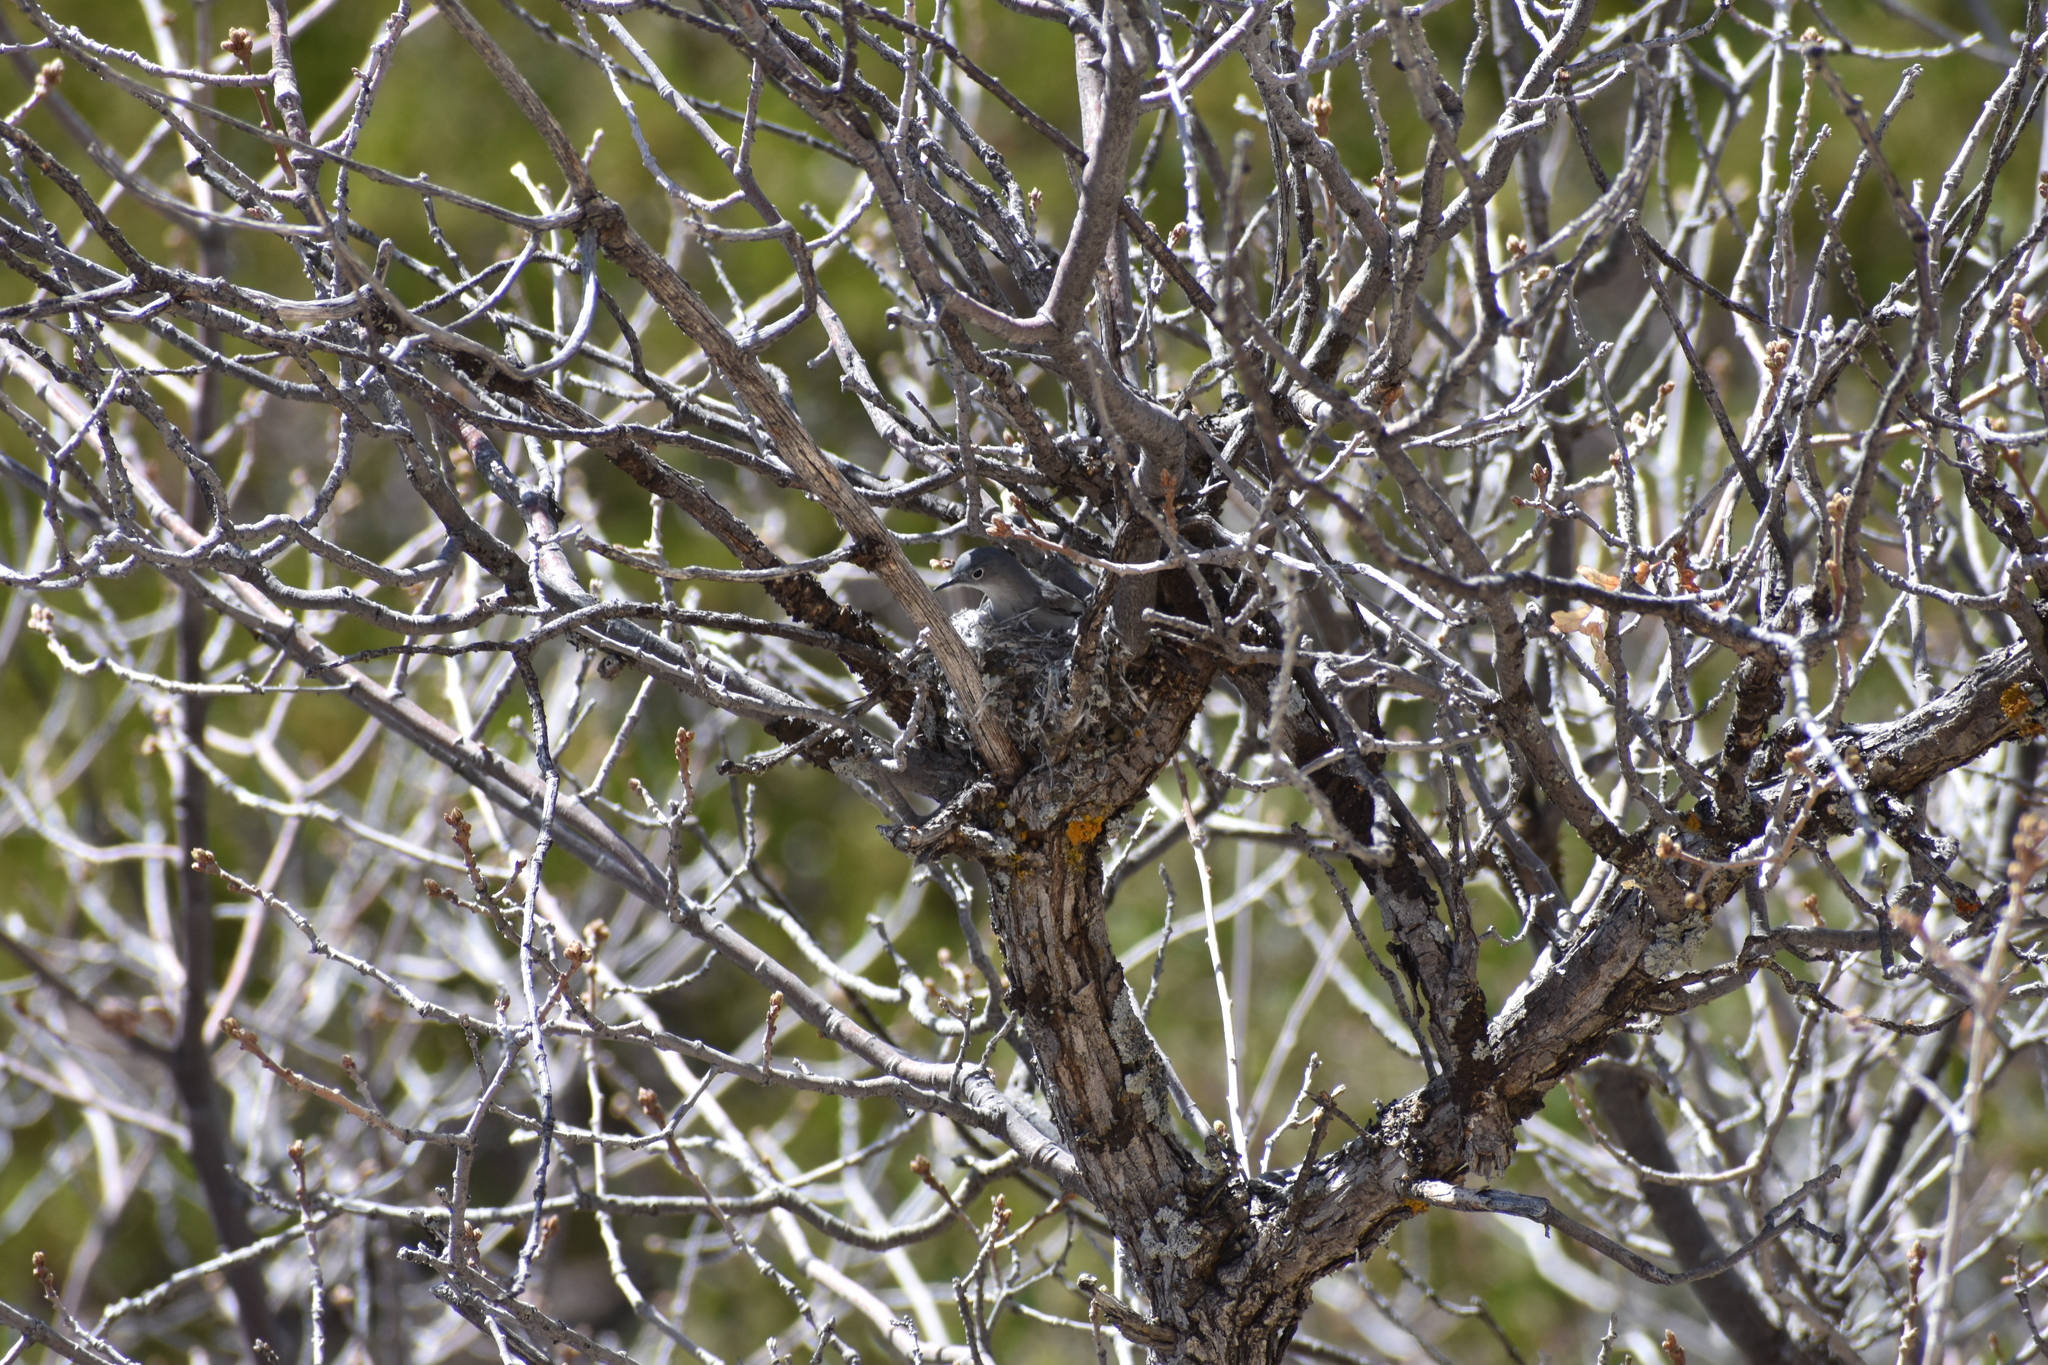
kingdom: Animalia
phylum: Chordata
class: Aves
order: Passeriformes
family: Polioptilidae
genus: Polioptila
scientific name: Polioptila caerulea
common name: Blue-gray gnatcatcher
